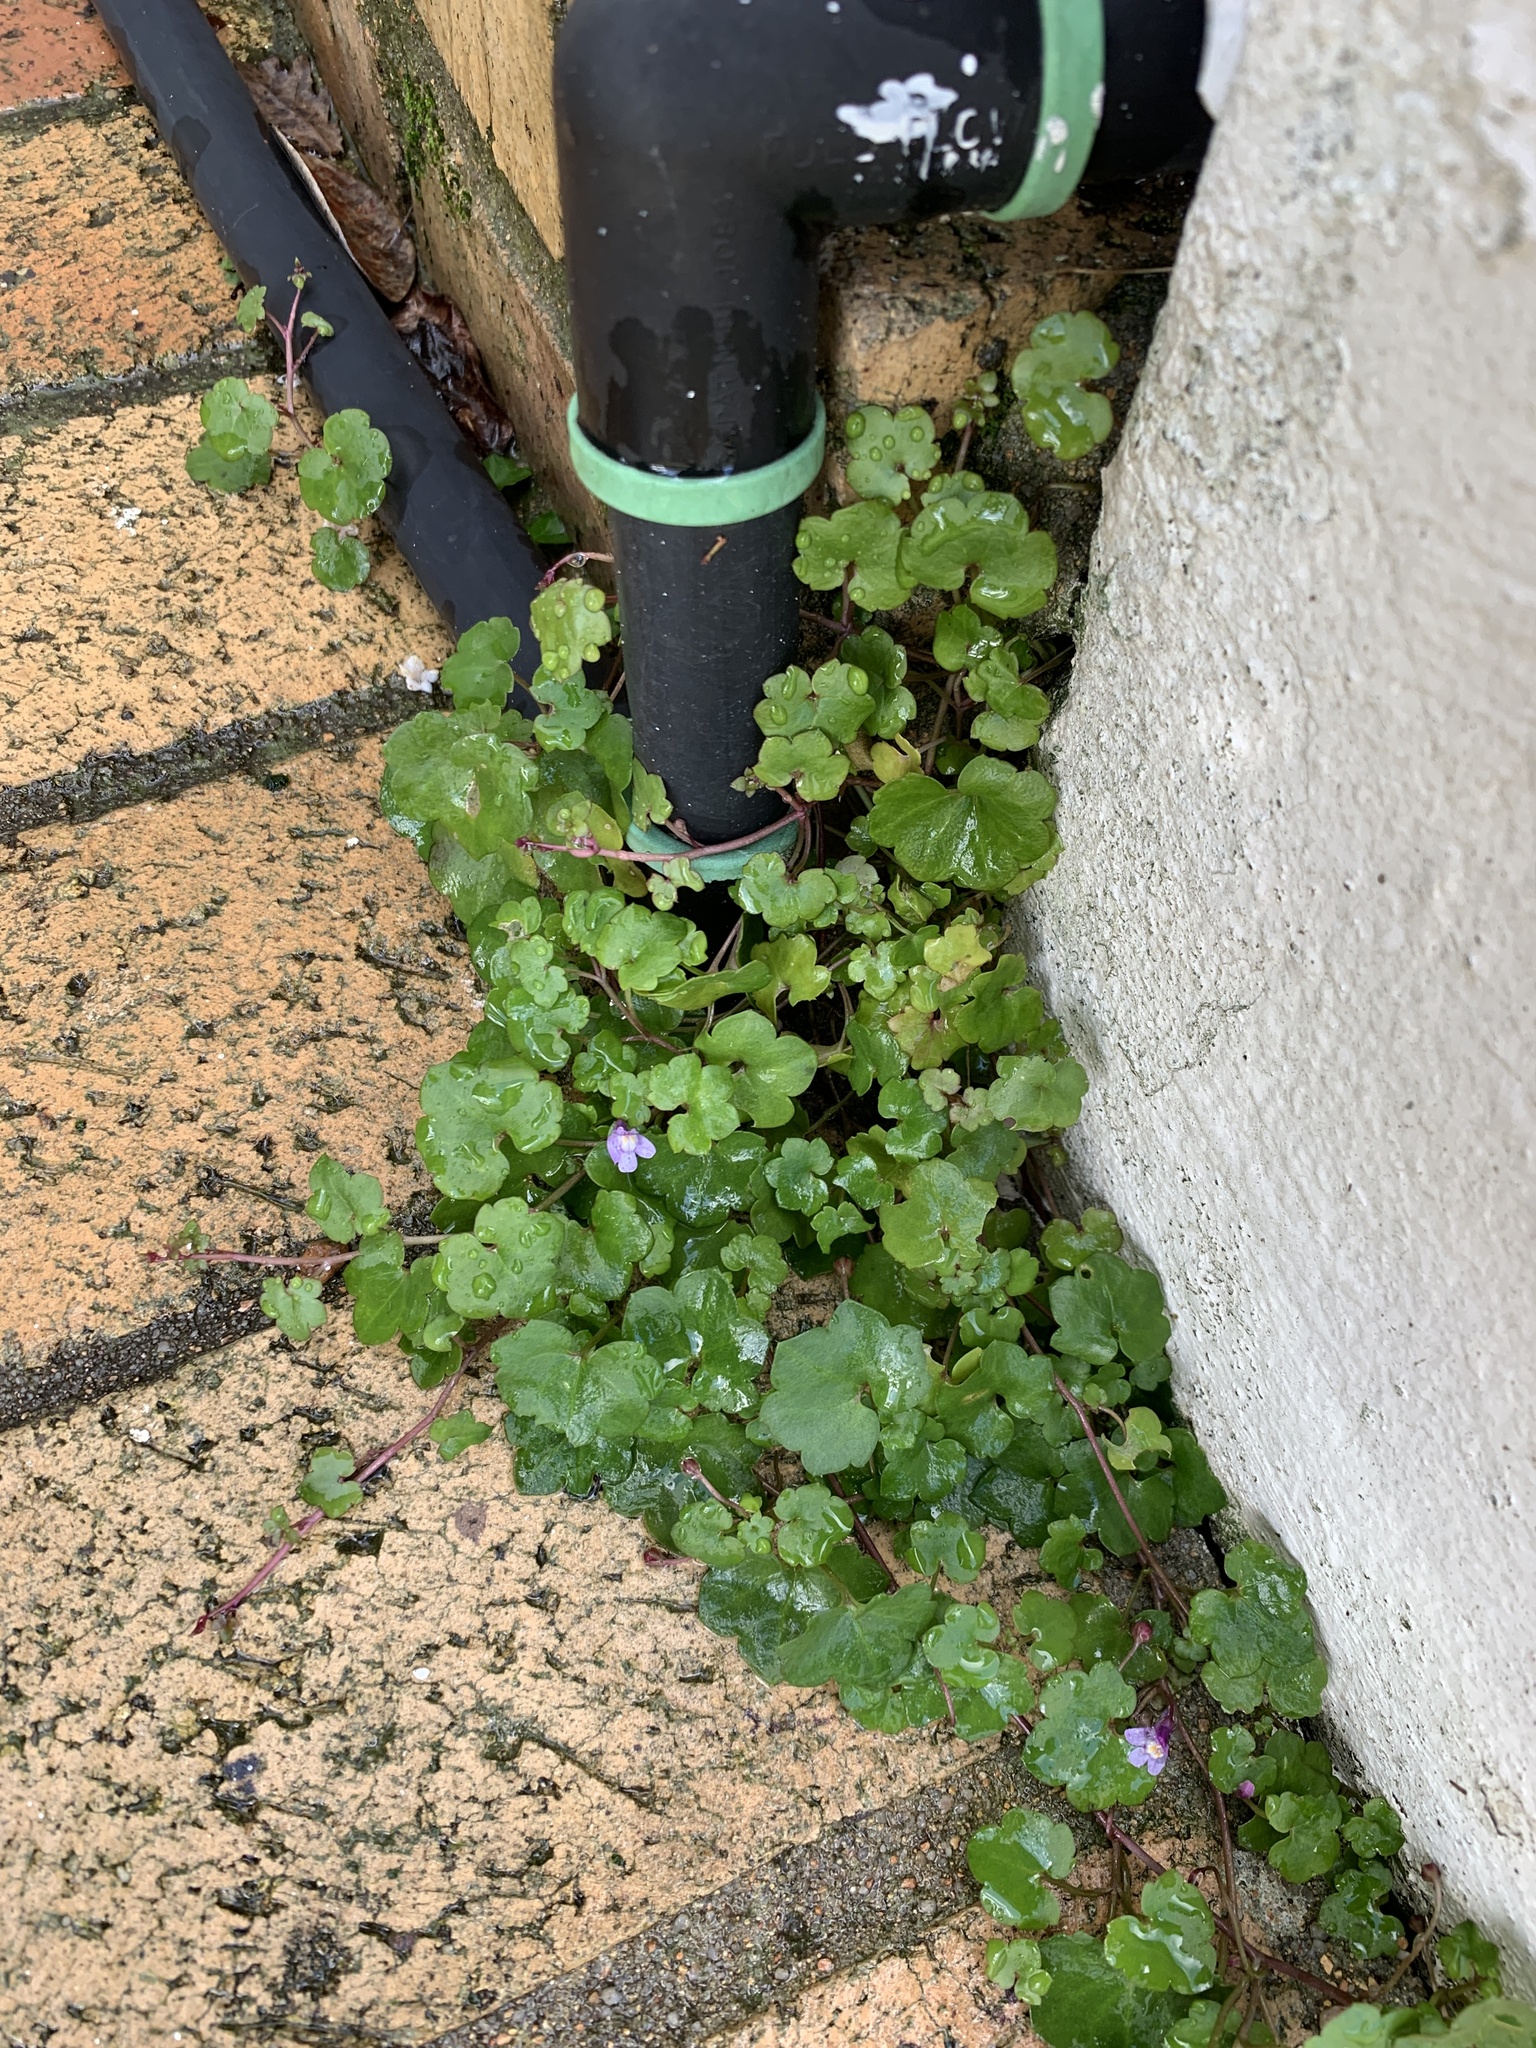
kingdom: Plantae
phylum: Tracheophyta
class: Magnoliopsida
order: Lamiales
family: Plantaginaceae
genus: Cymbalaria
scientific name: Cymbalaria muralis
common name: Ivy-leaved toadflax
